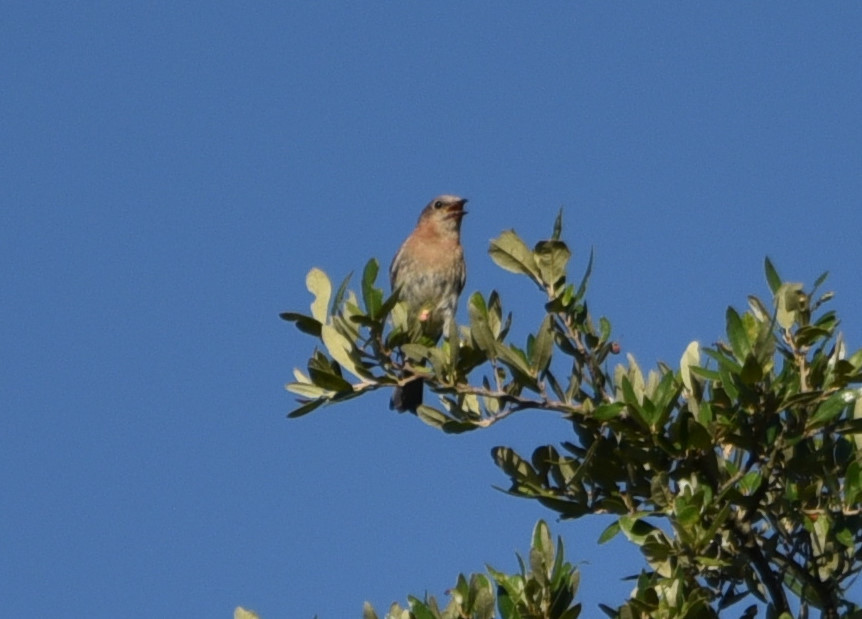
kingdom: Animalia
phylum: Chordata
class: Aves
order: Passeriformes
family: Turdidae
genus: Sialia
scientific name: Sialia sialis
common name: Eastern bluebird
